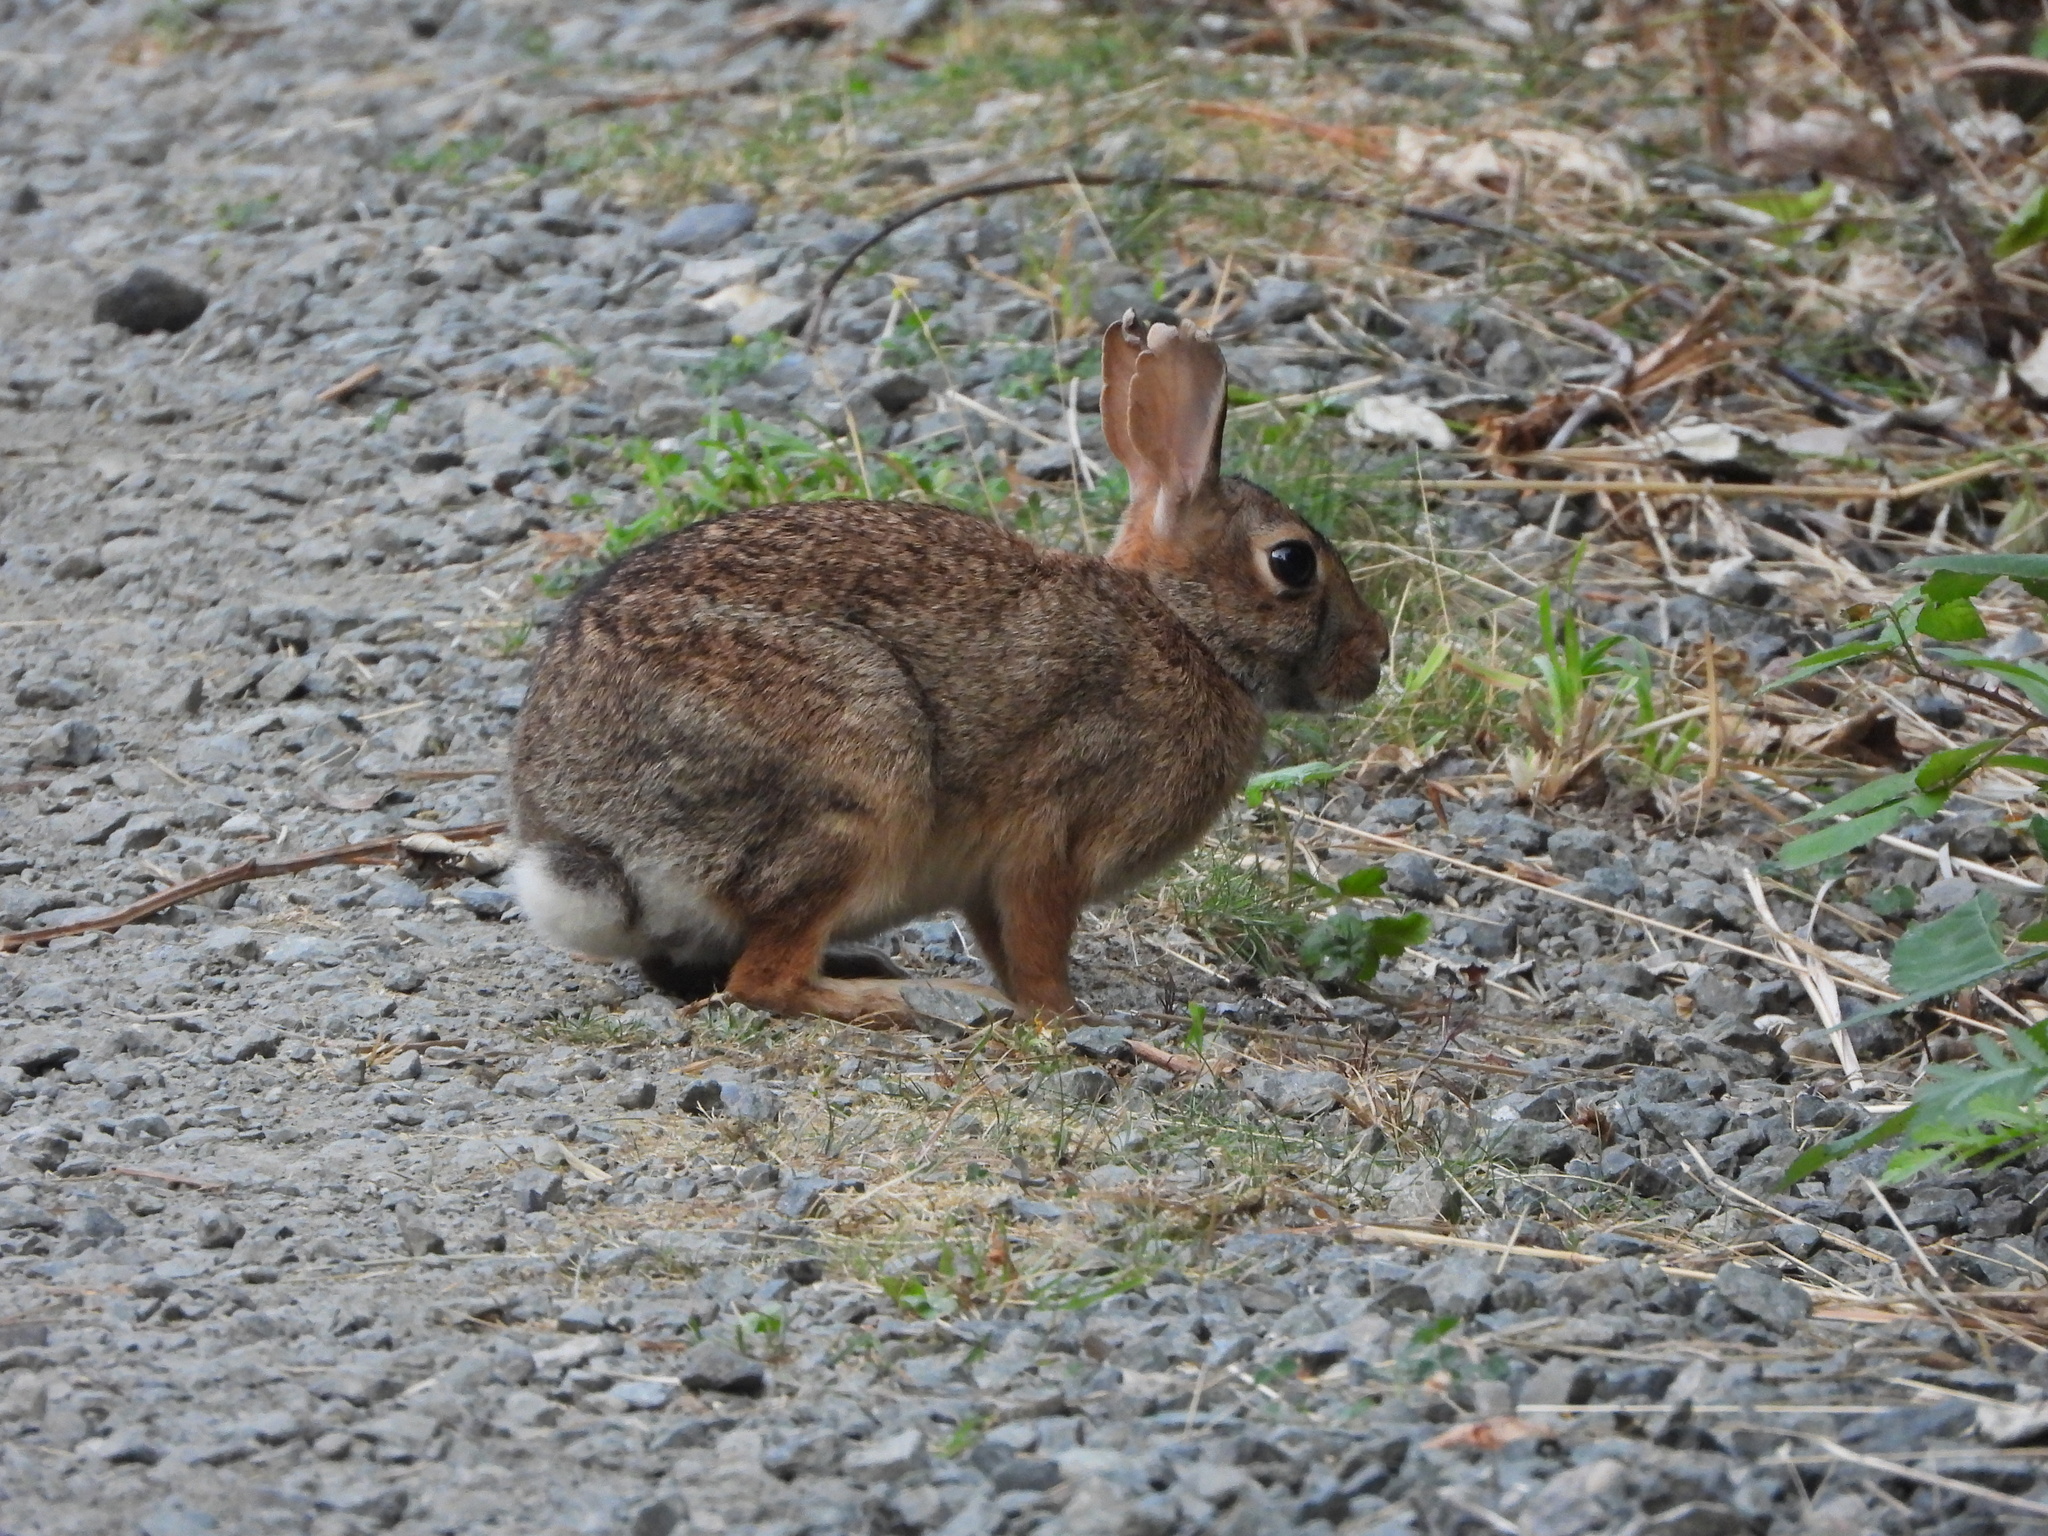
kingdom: Animalia
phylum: Chordata
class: Mammalia
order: Lagomorpha
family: Leporidae
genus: Sylvilagus
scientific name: Sylvilagus floridanus
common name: Eastern cottontail
